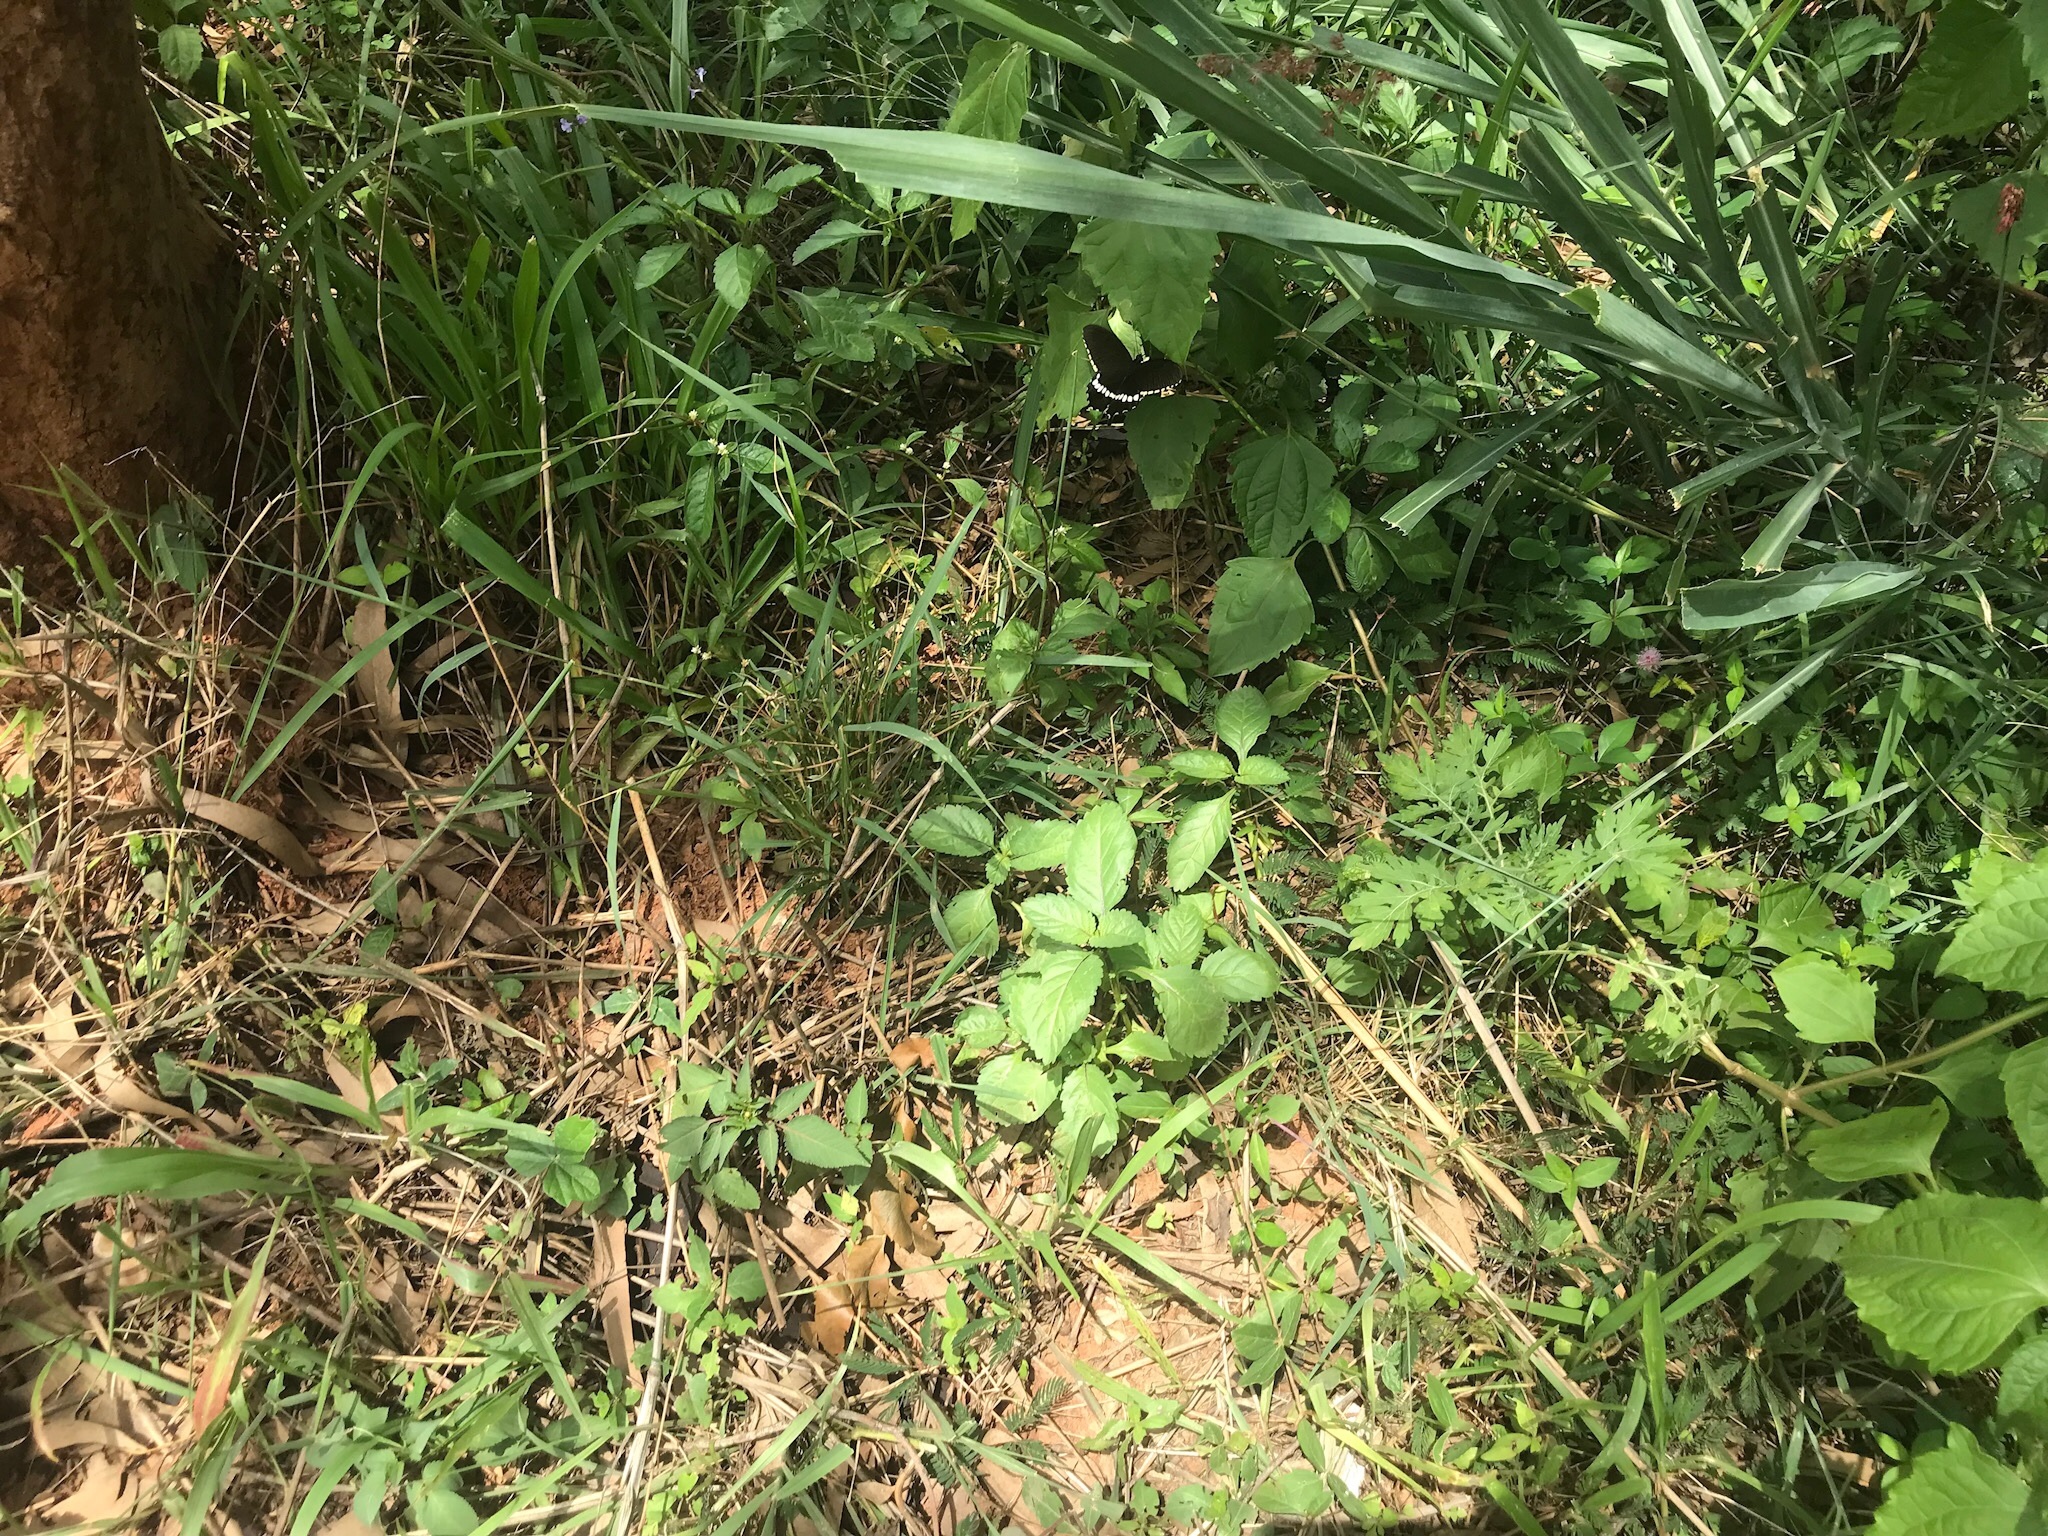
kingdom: Animalia
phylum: Arthropoda
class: Insecta
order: Lepidoptera
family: Papilionidae
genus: Papilio
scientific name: Papilio polytes
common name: Common mormon
